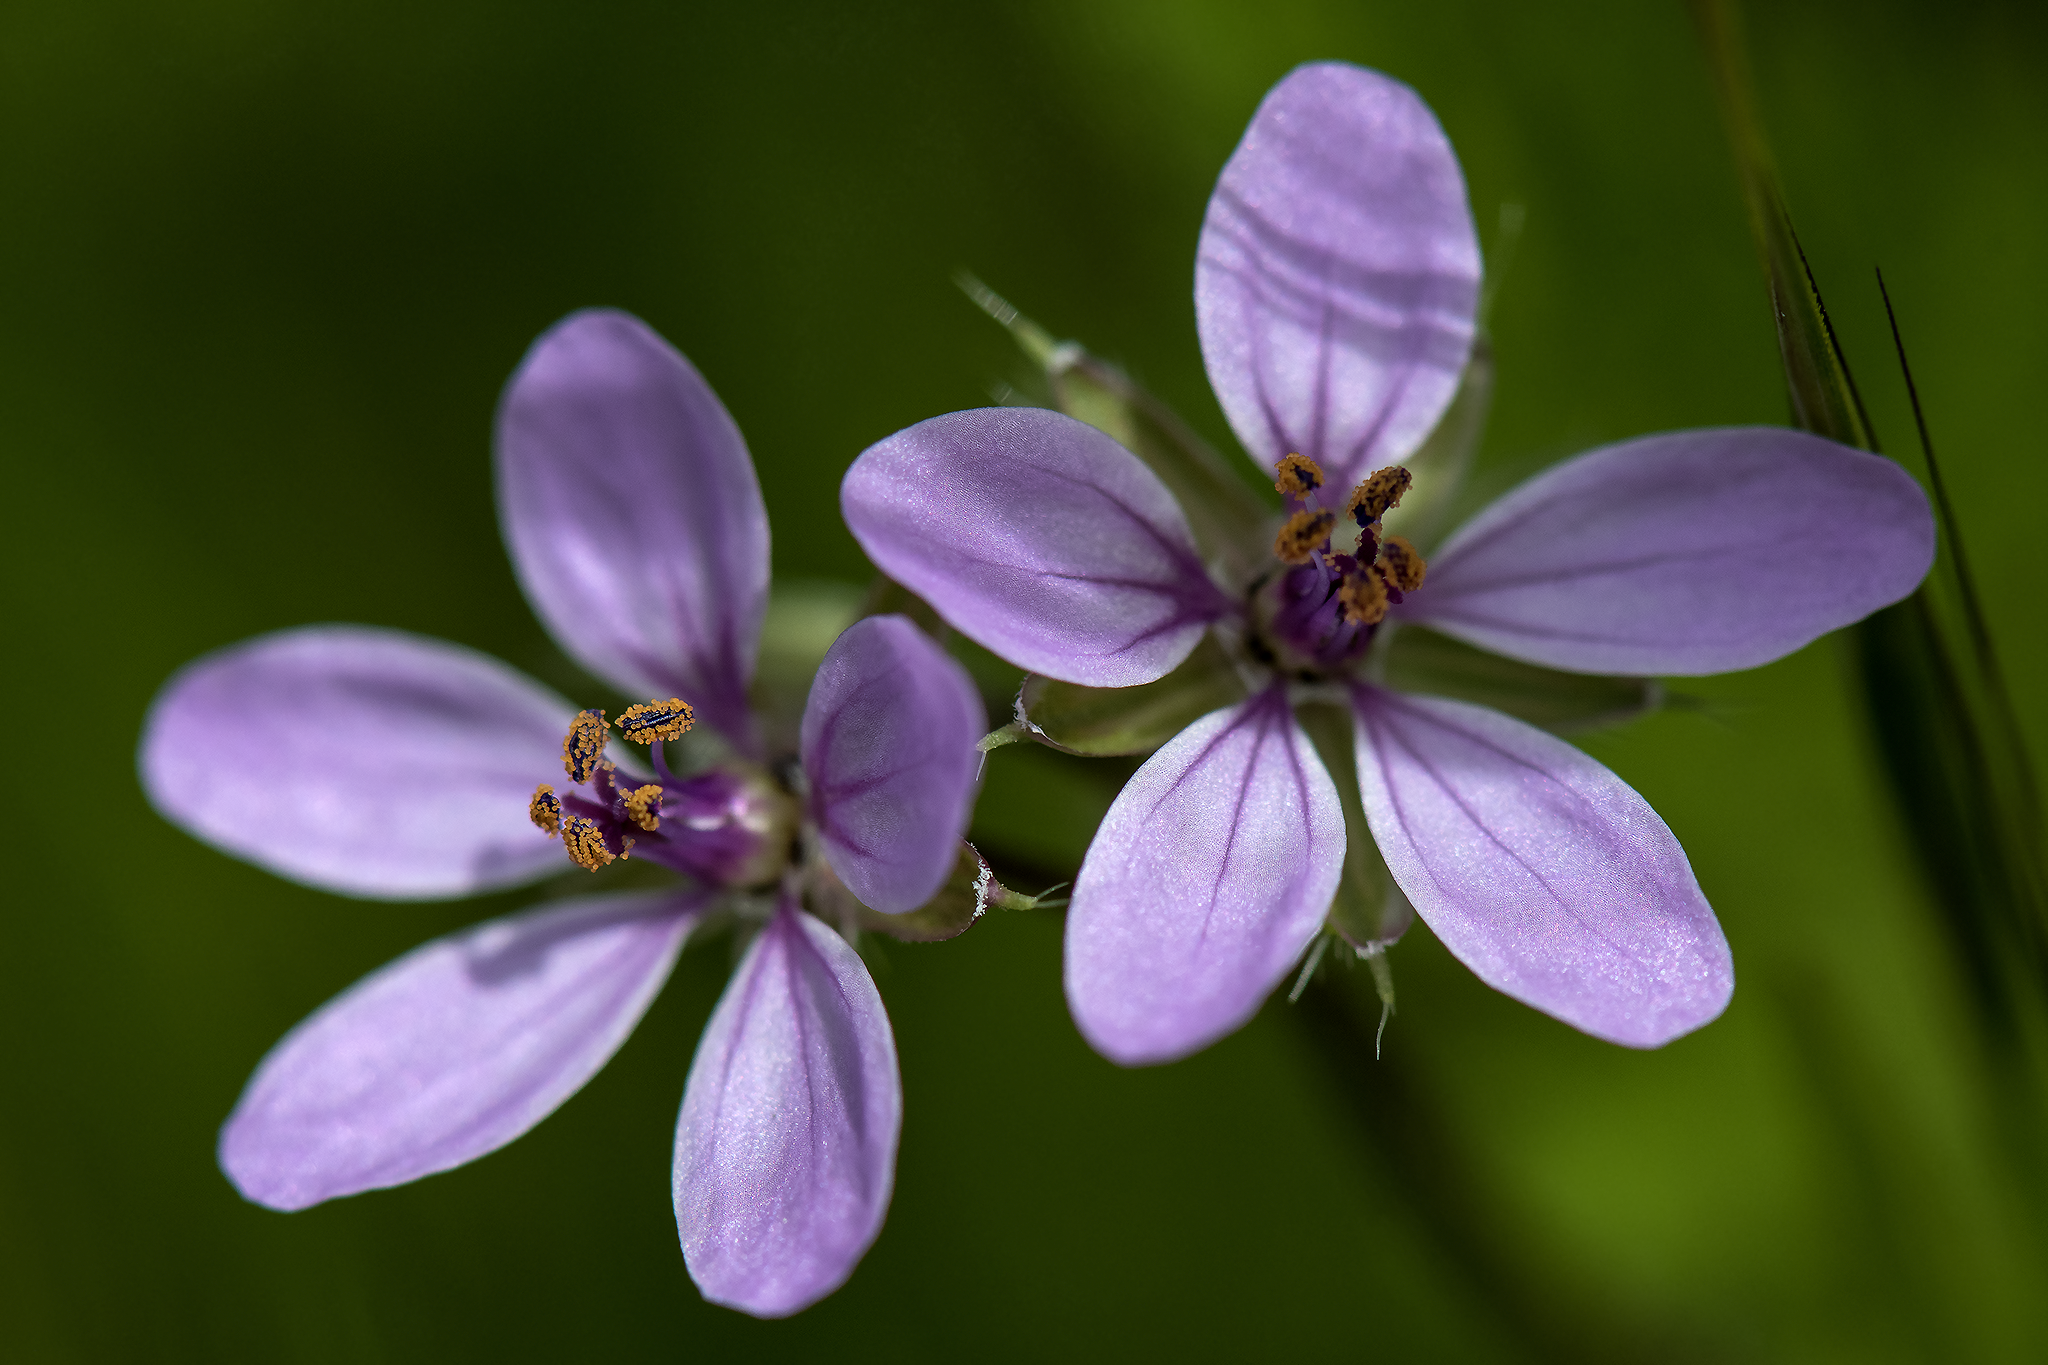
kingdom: Plantae
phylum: Tracheophyta
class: Magnoliopsida
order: Geraniales
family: Geraniaceae
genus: Erodium
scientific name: Erodium cicutarium
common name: Common stork's-bill
